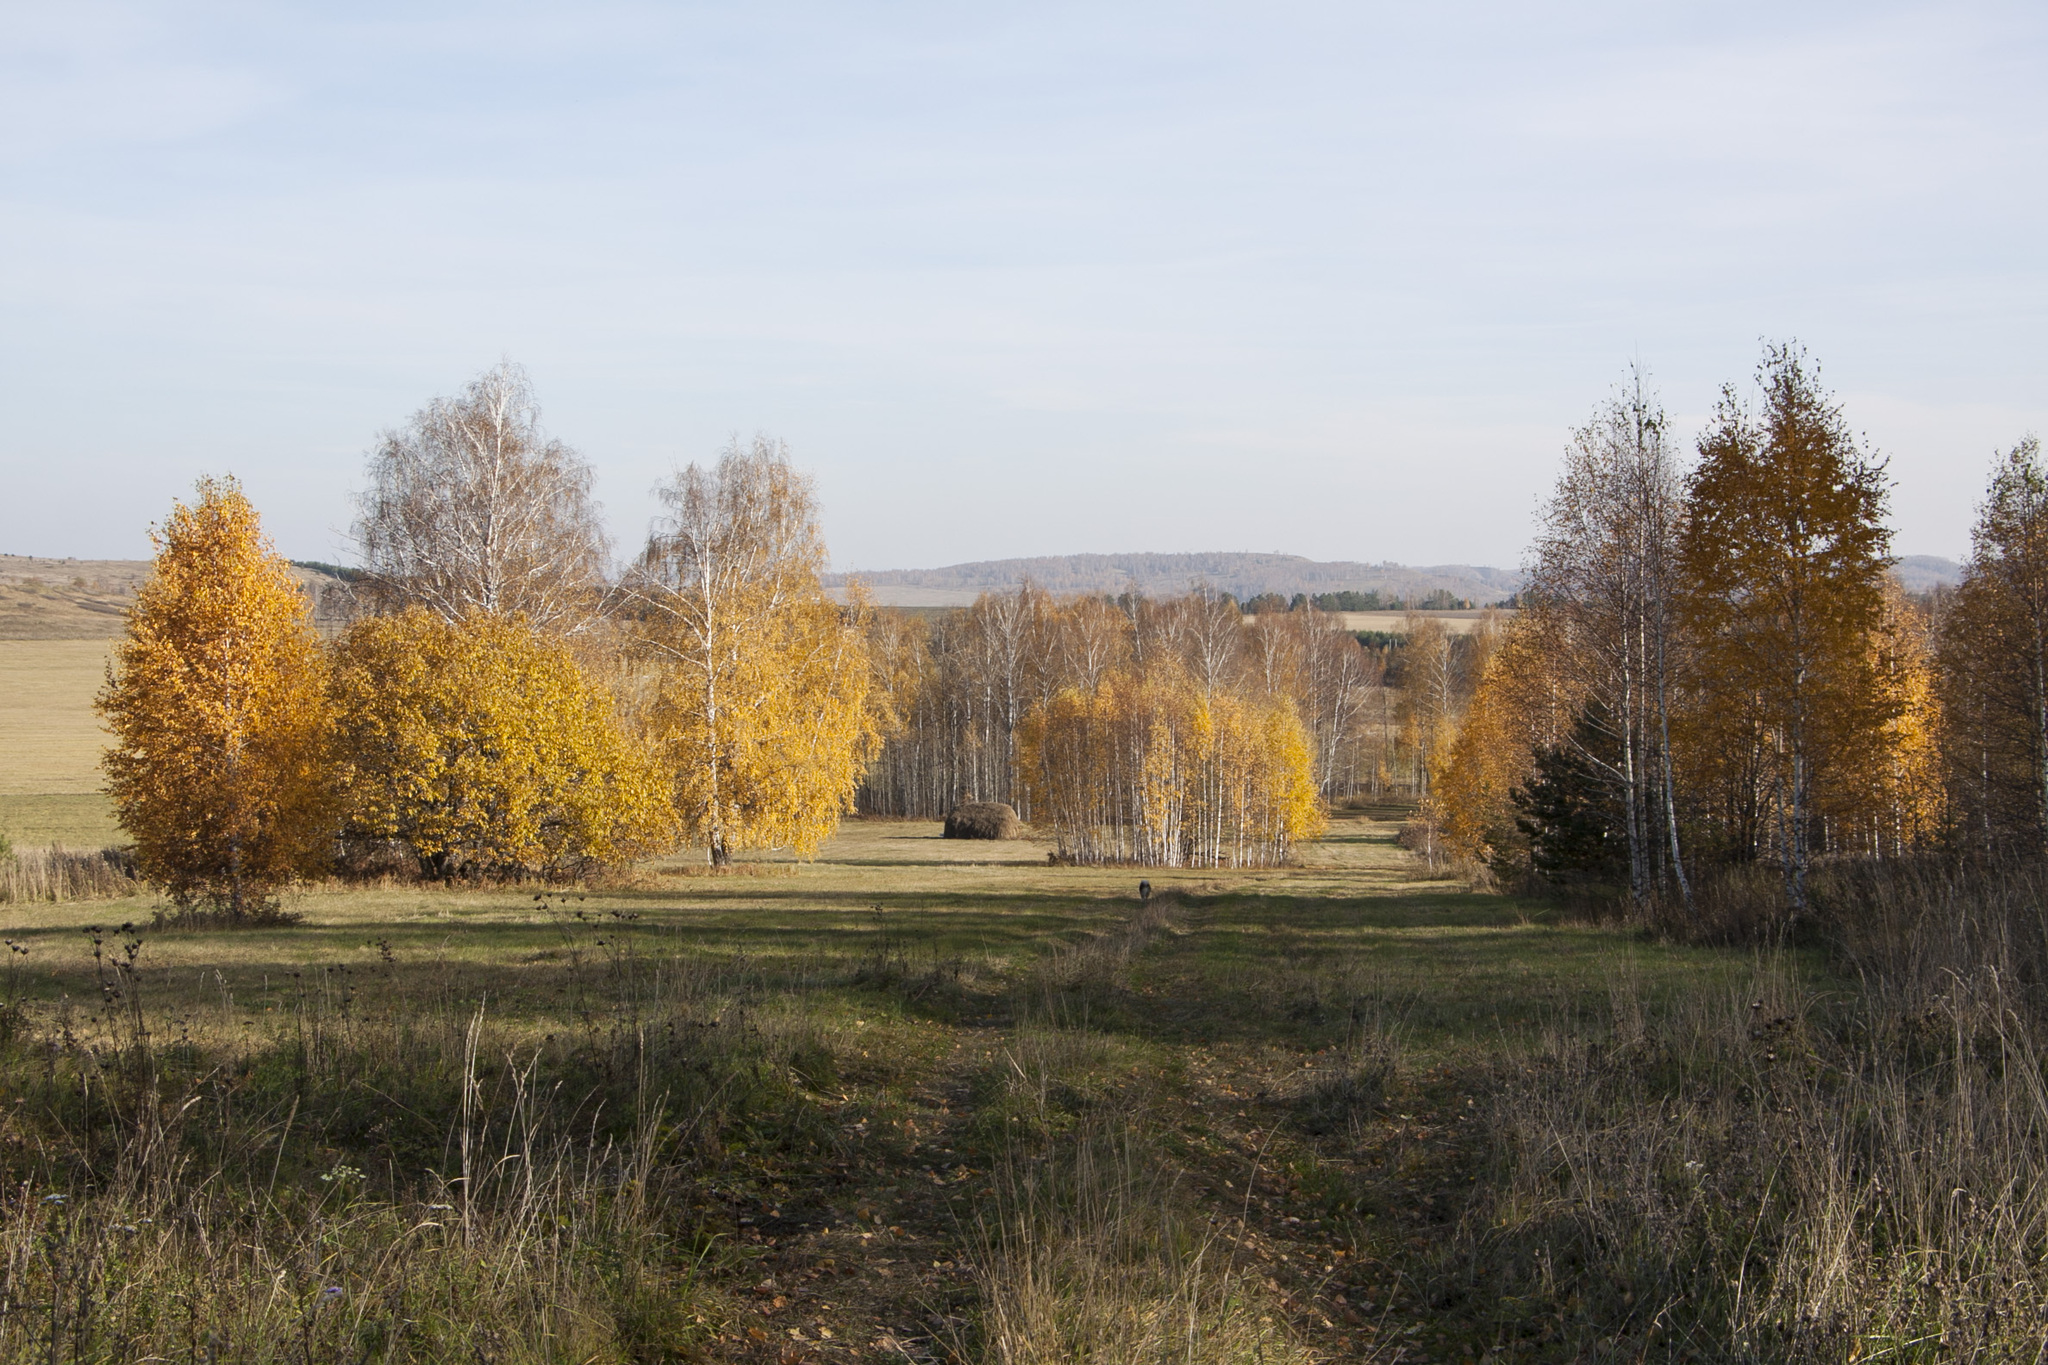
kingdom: Plantae
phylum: Tracheophyta
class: Magnoliopsida
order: Fagales
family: Betulaceae
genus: Betula
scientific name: Betula pendula
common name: Silver birch
